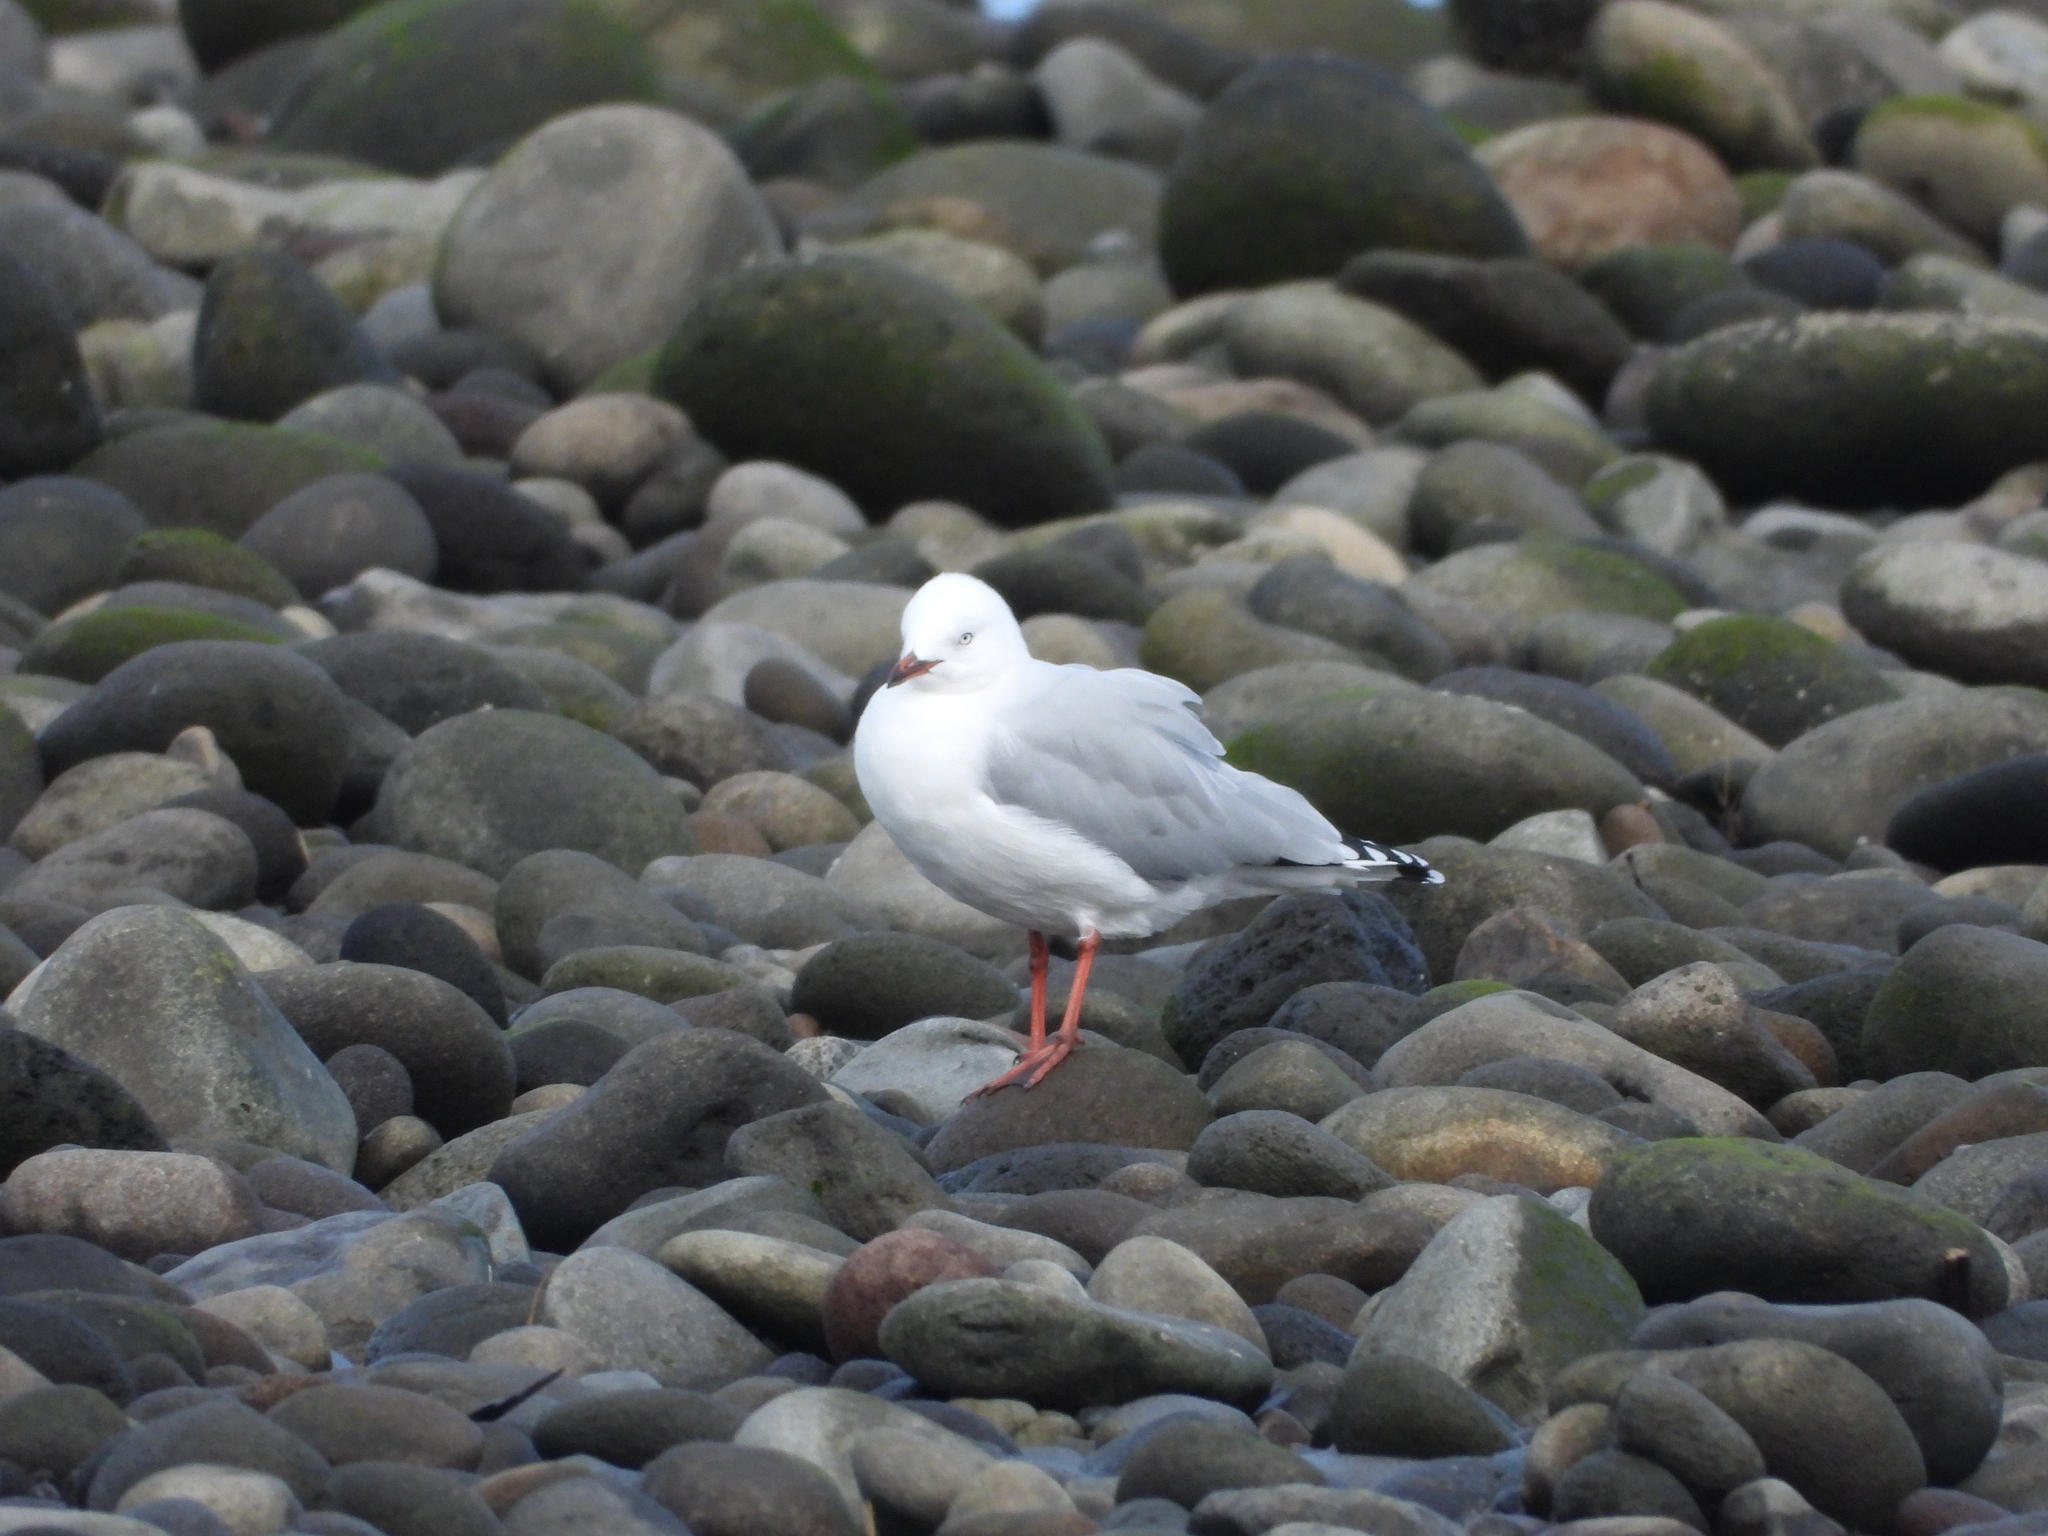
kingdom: Animalia
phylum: Chordata
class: Aves
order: Charadriiformes
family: Laridae
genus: Chroicocephalus
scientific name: Chroicocephalus novaehollandiae
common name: Silver gull
